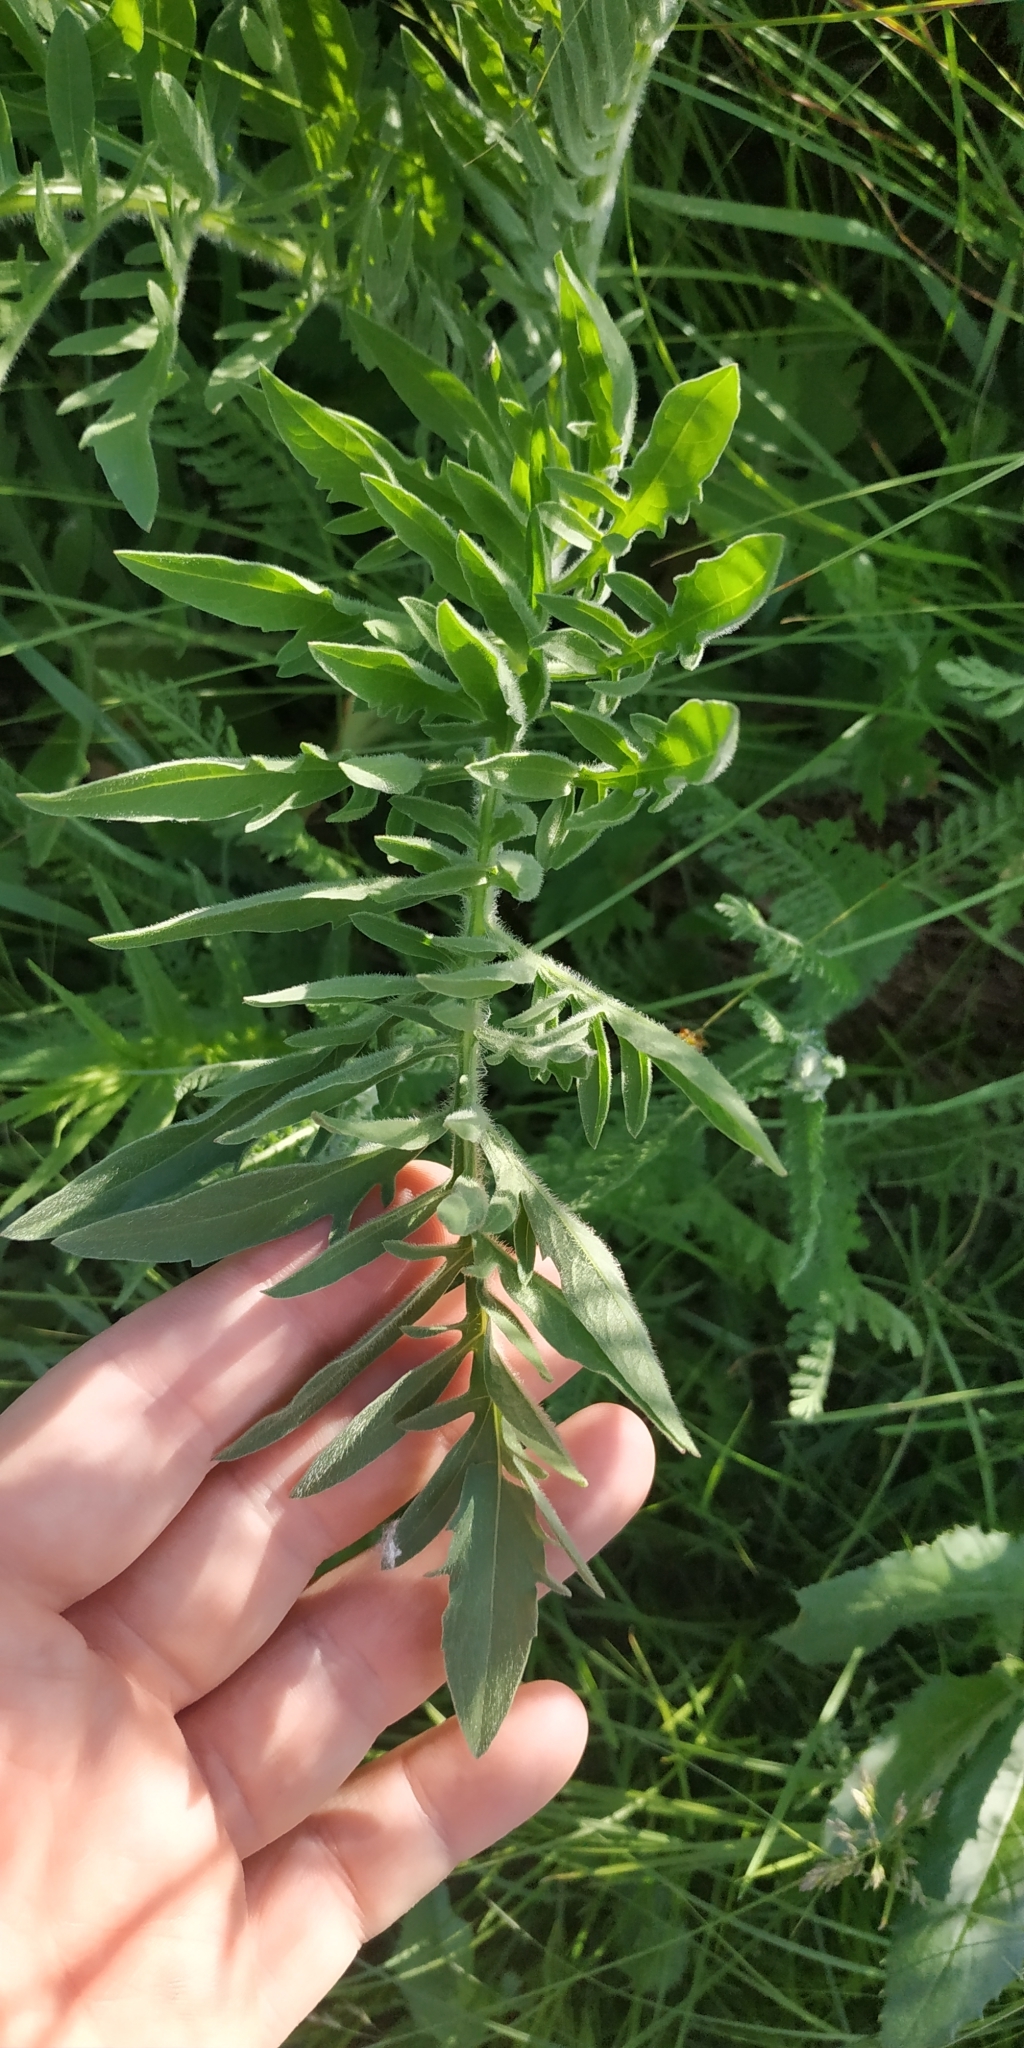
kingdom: Plantae
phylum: Tracheophyta
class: Magnoliopsida
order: Asterales
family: Asteraceae
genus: Centaurea
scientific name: Centaurea scabiosa
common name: Greater knapweed
